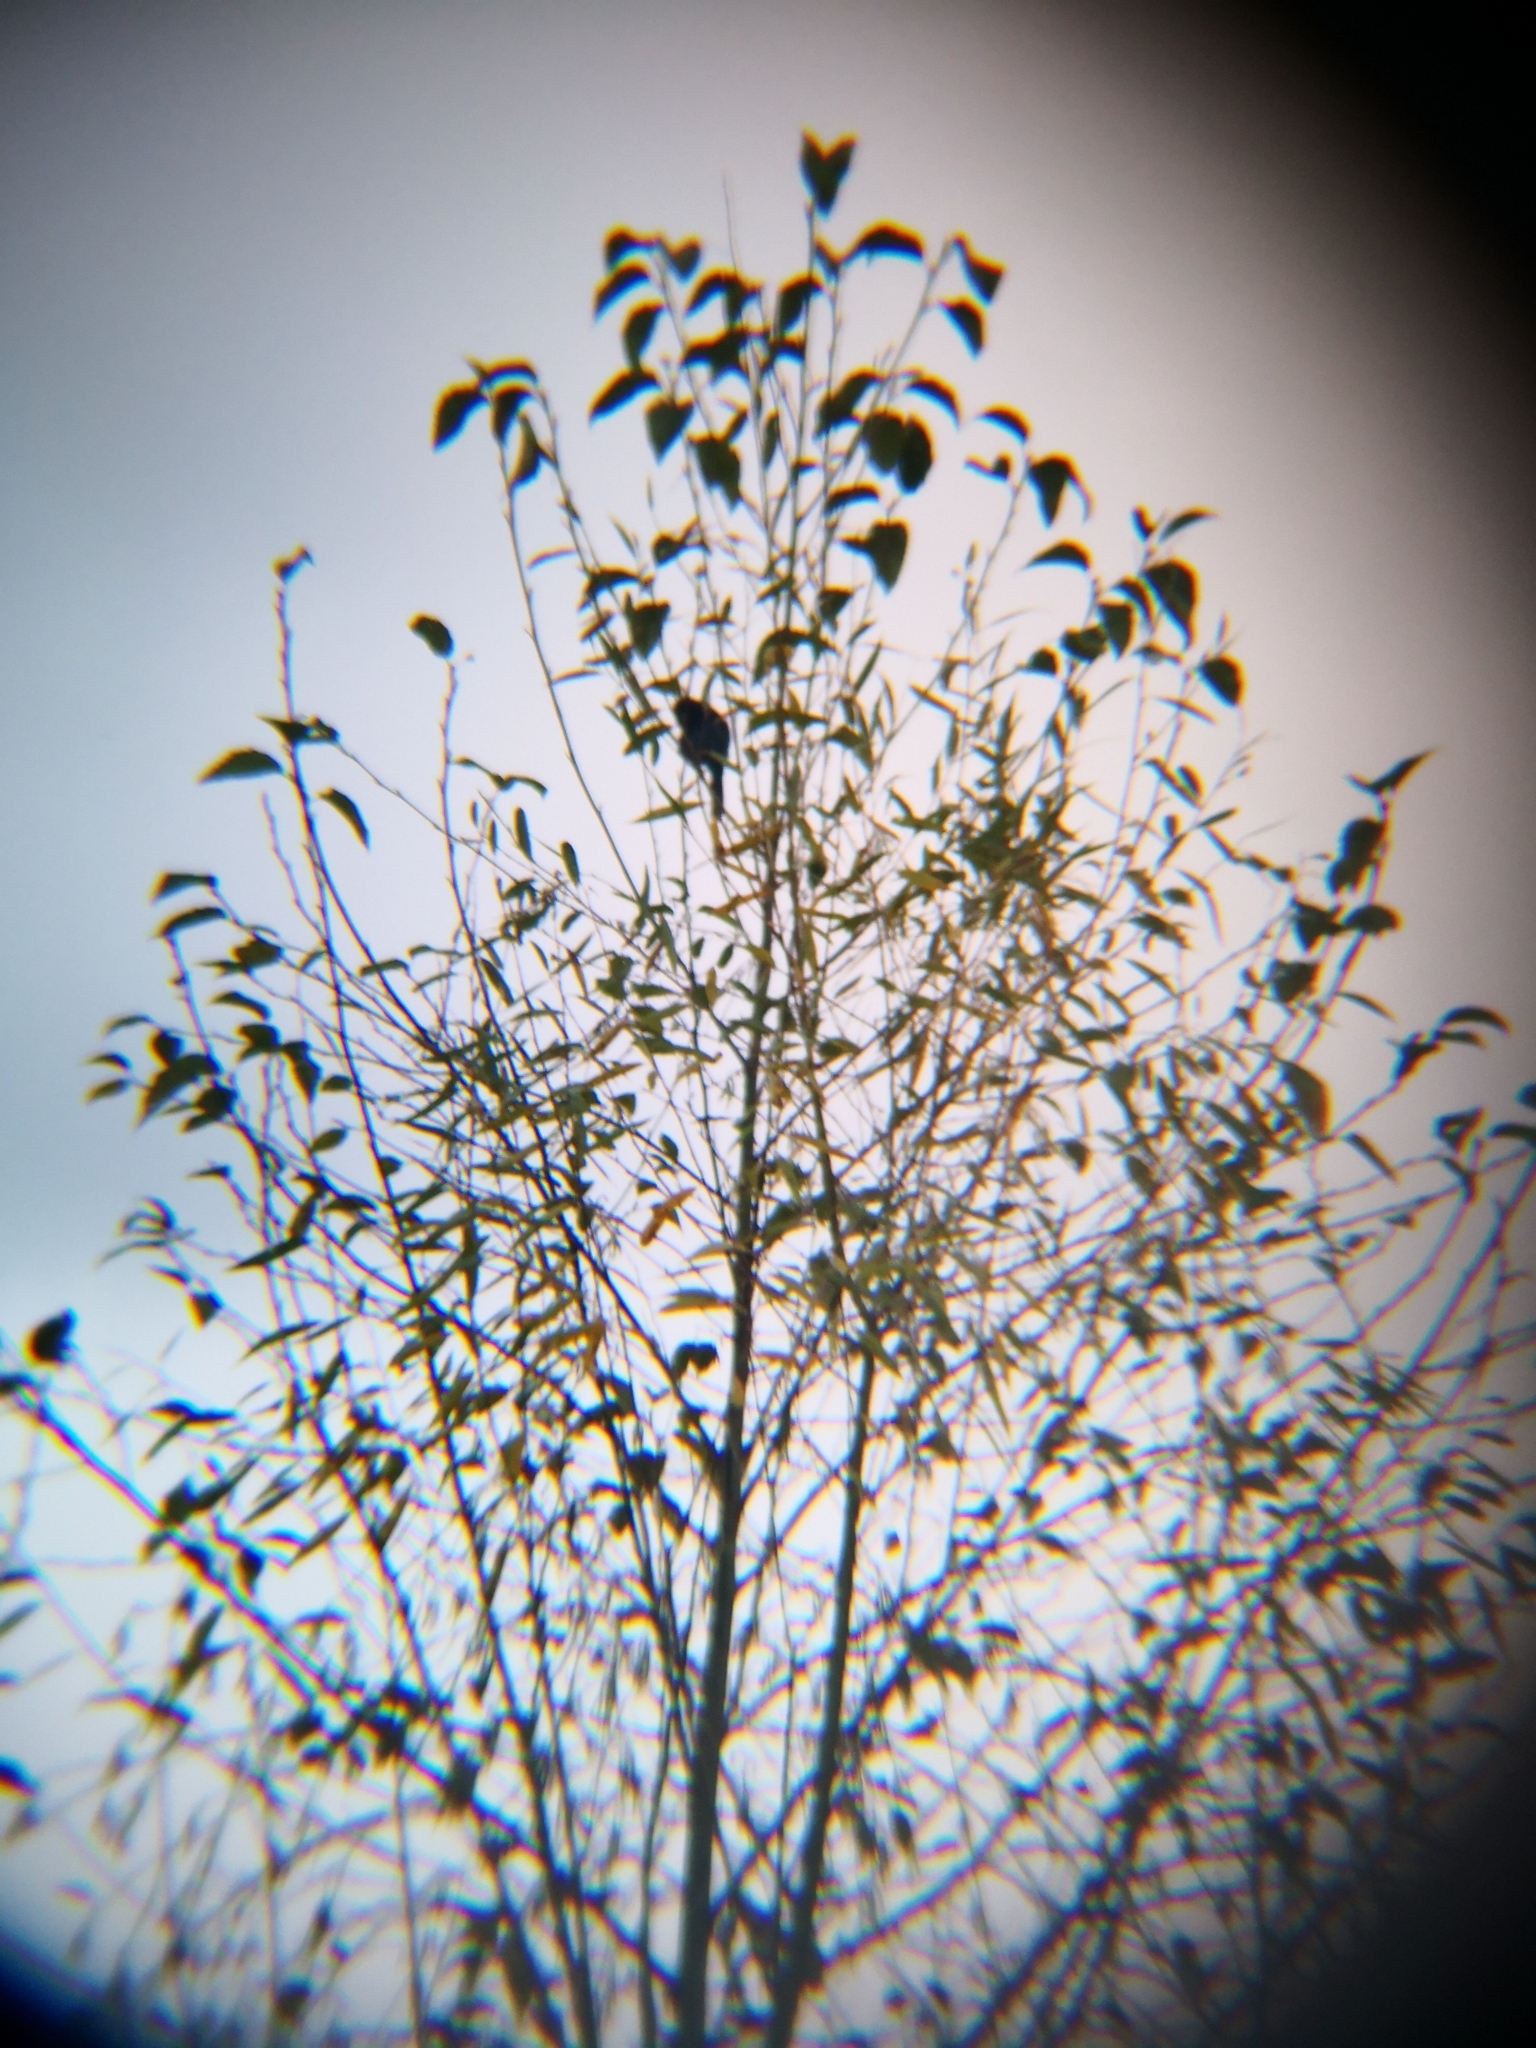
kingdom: Animalia
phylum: Chordata
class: Aves
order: Passeriformes
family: Corvidae
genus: Cyanocitta
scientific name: Cyanocitta stelleri
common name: Steller's jay
